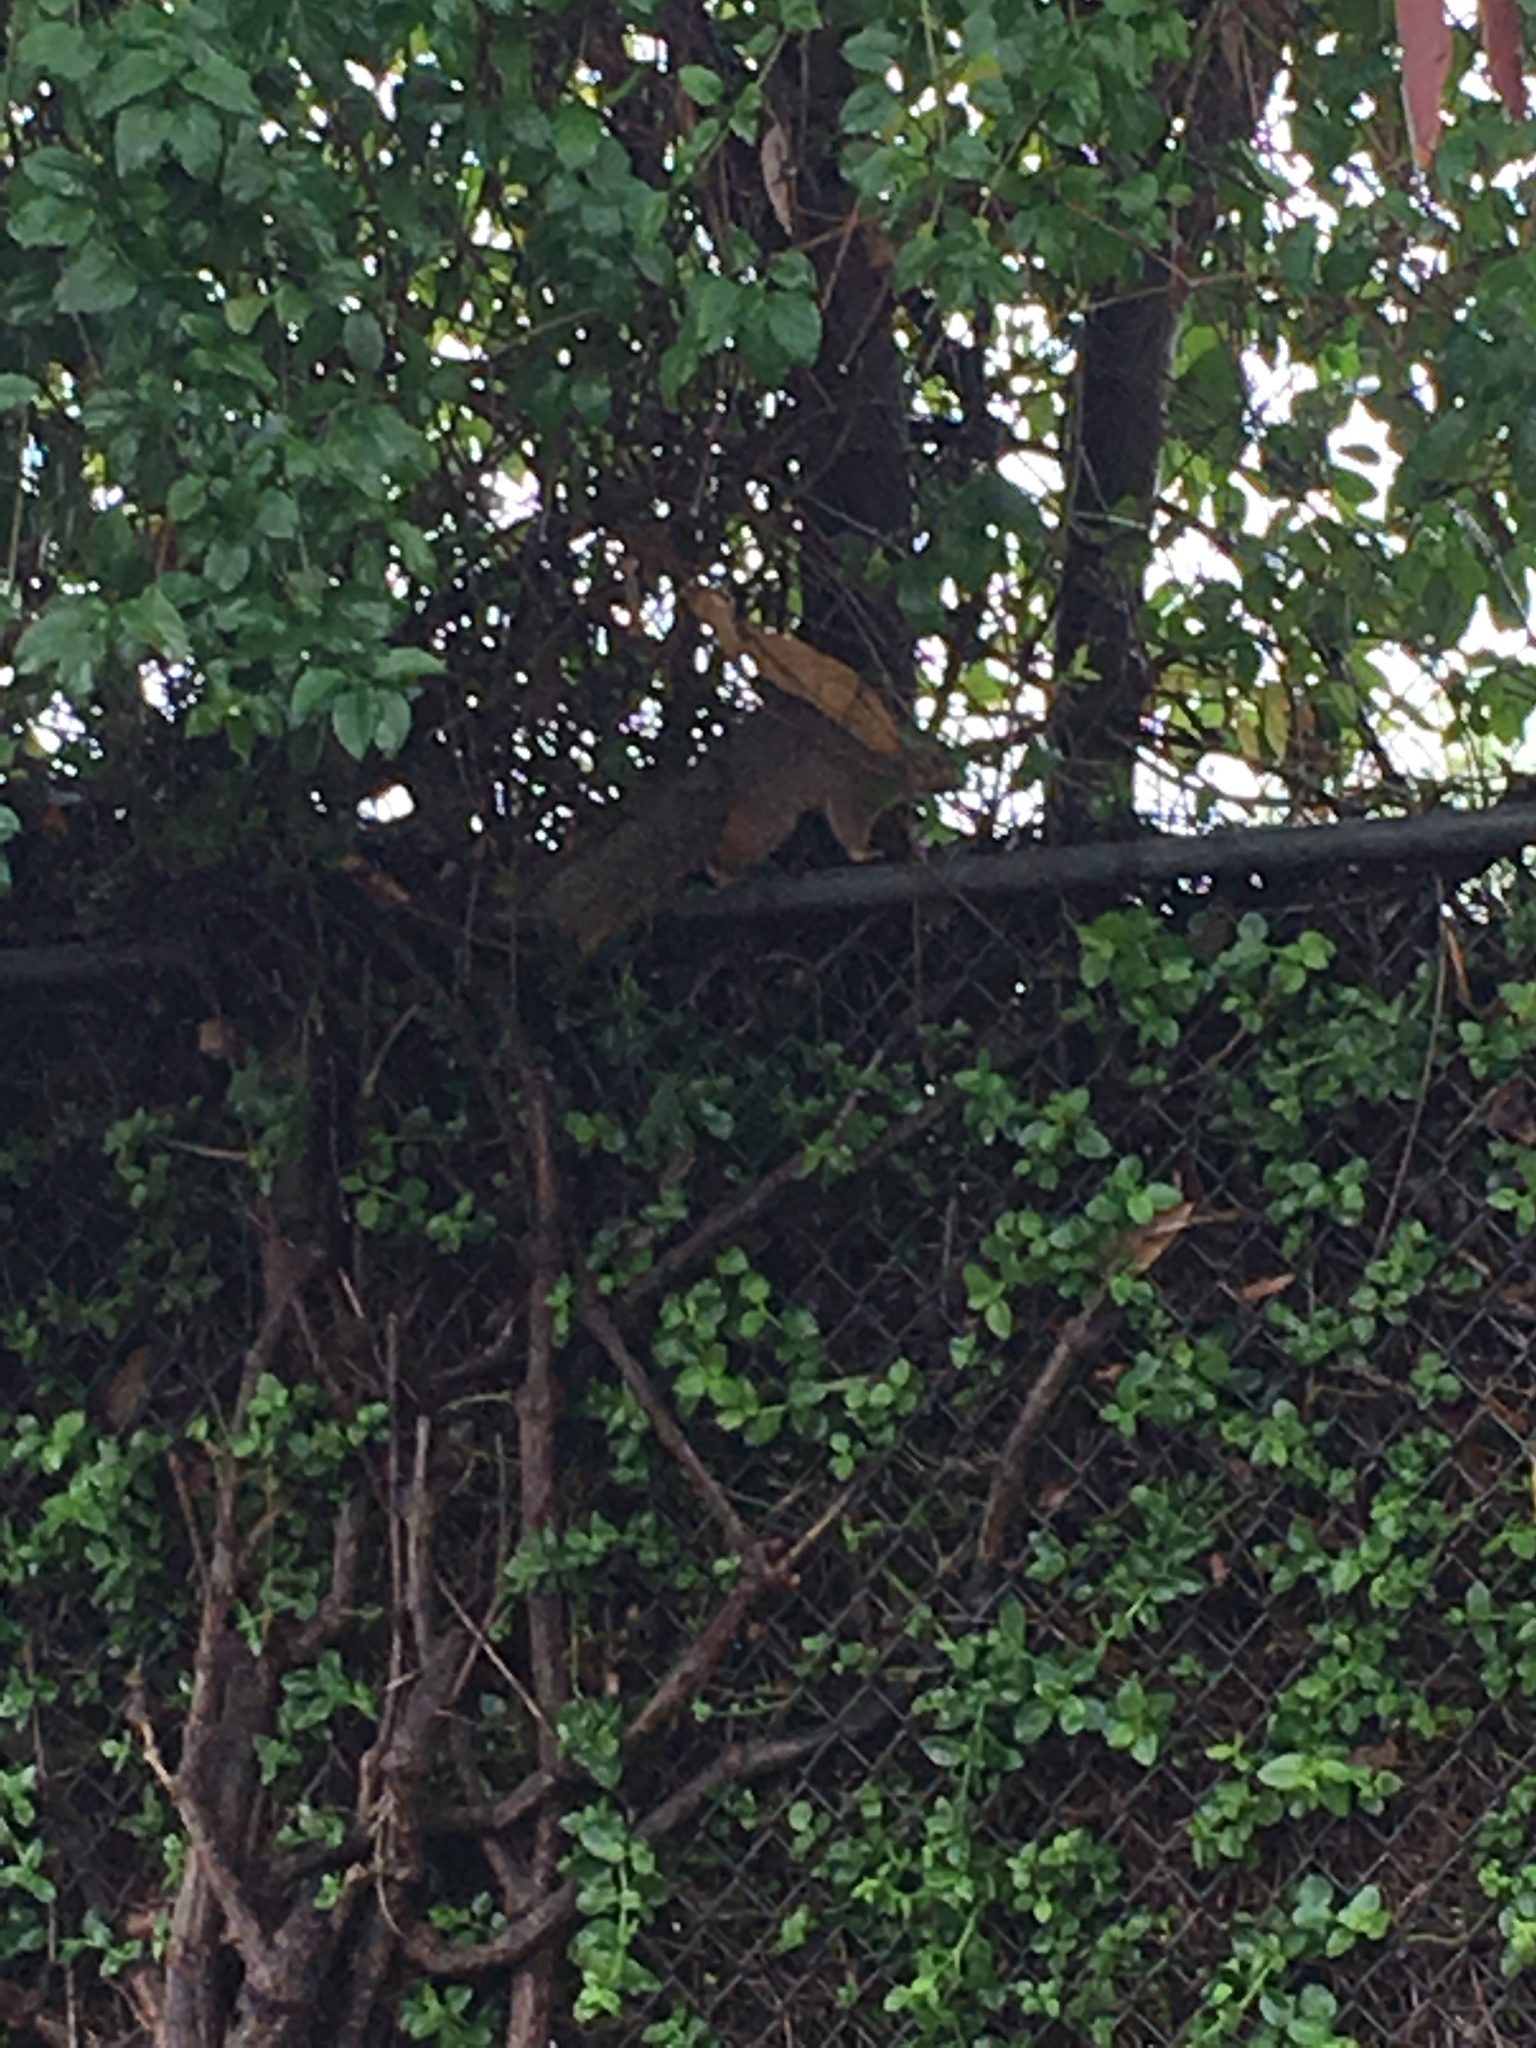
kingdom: Animalia
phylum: Chordata
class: Mammalia
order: Rodentia
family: Sciuridae
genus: Sciurus
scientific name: Sciurus niger
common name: Fox squirrel
